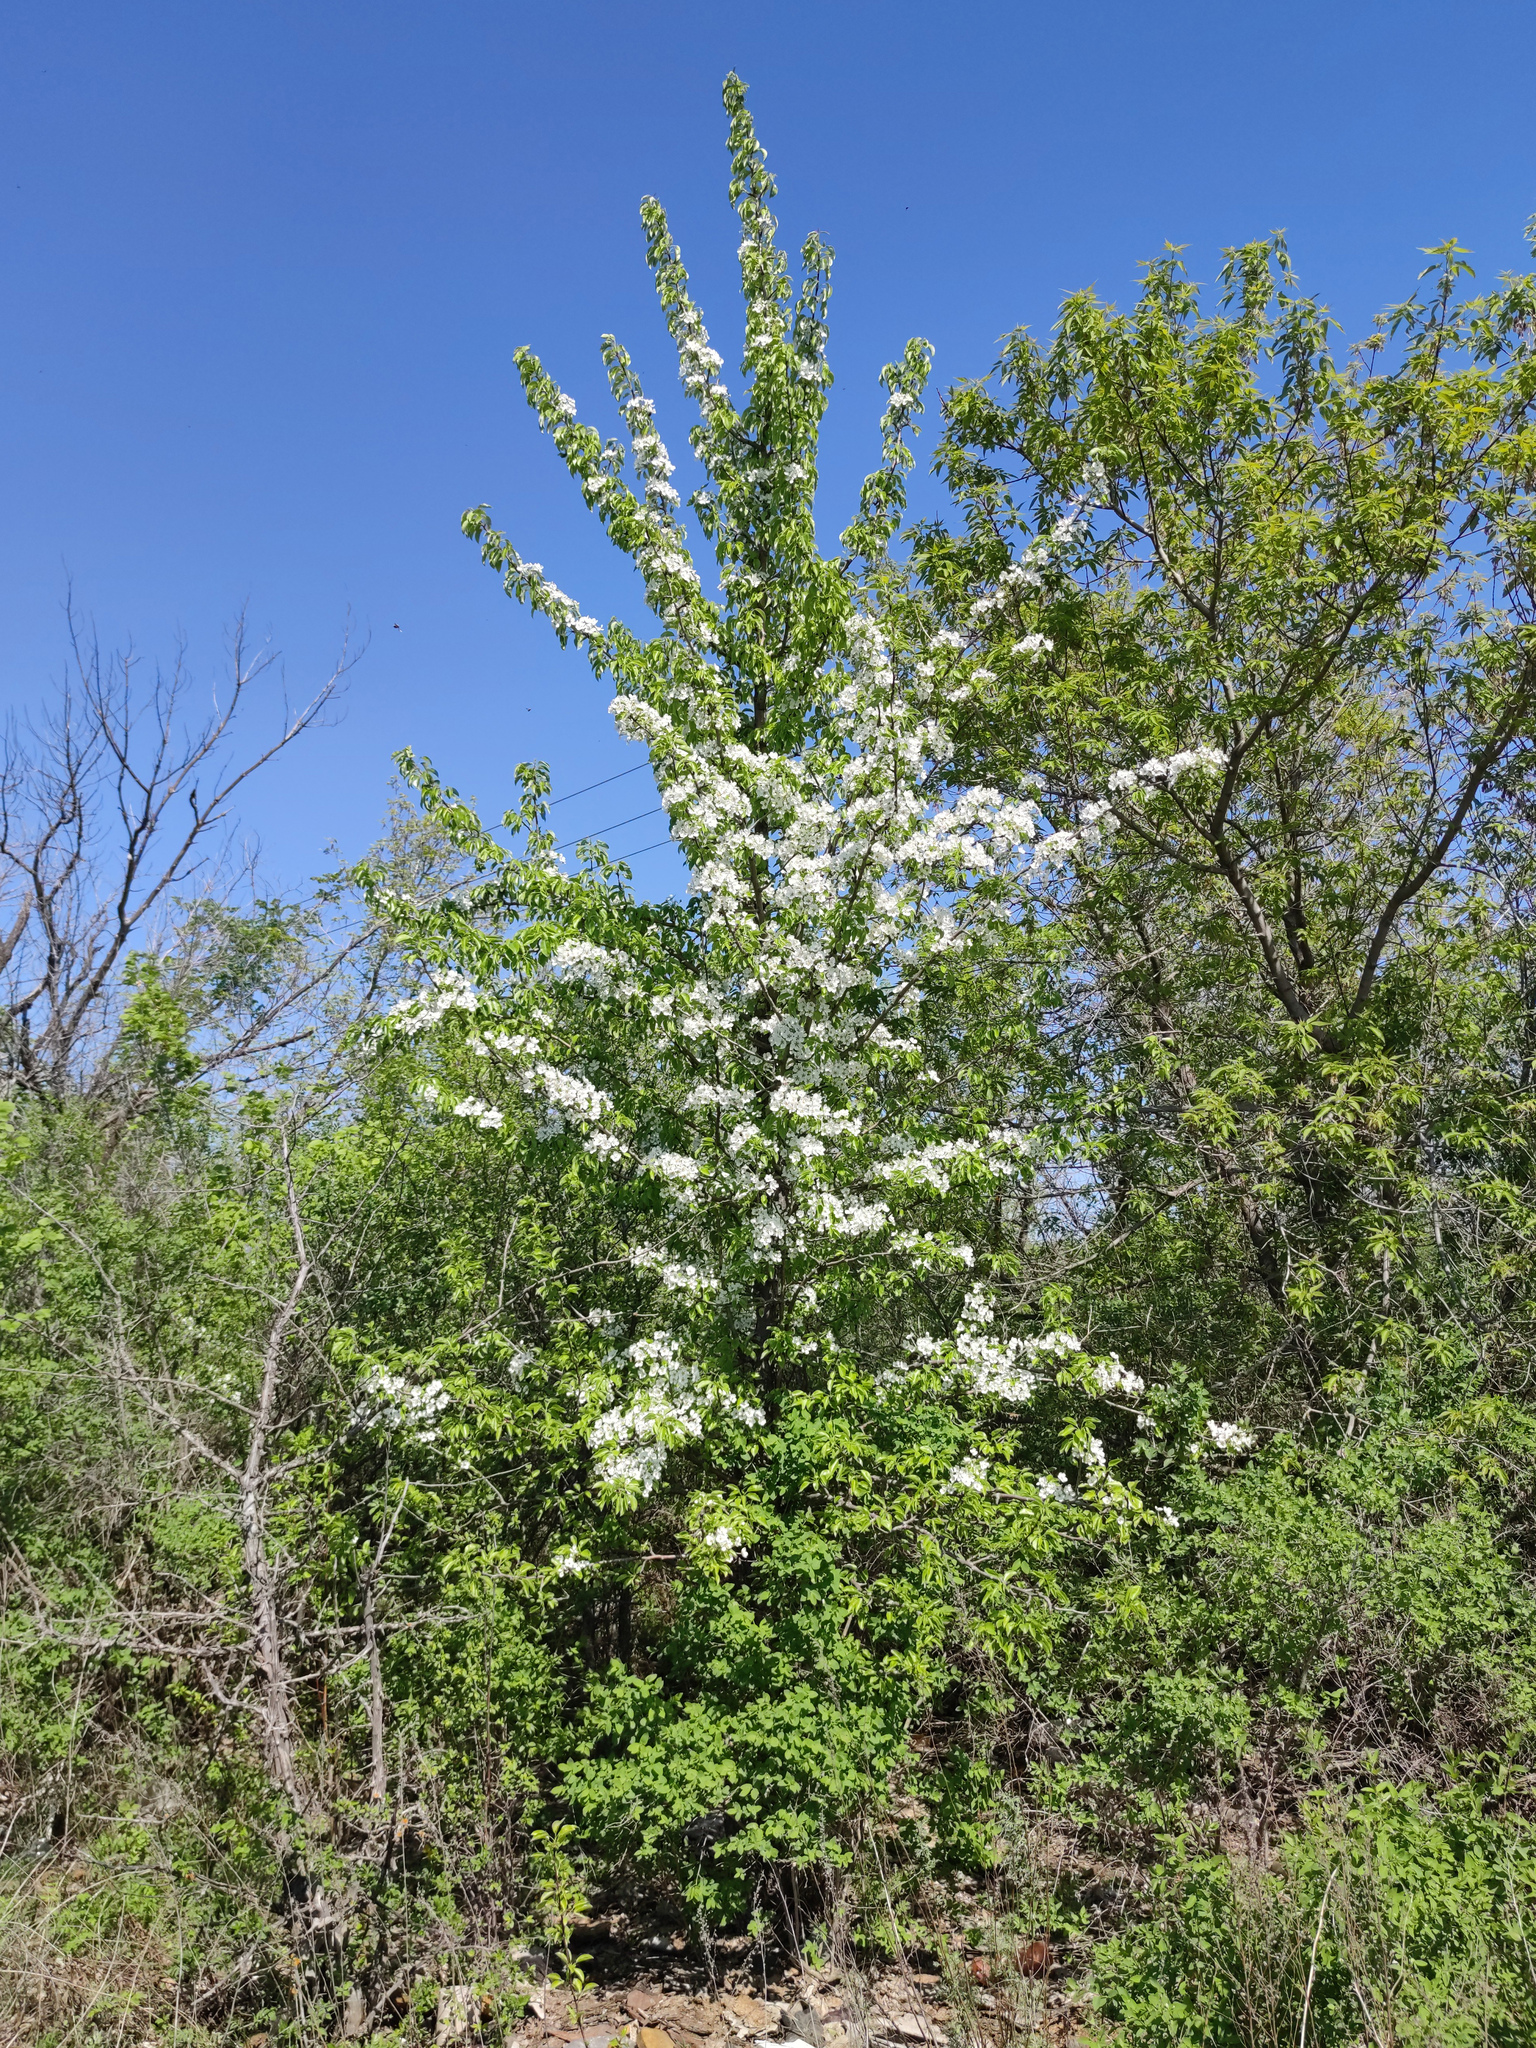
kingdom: Plantae
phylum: Tracheophyta
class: Magnoliopsida
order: Rosales
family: Rosaceae
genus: Pyrus
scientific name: Pyrus communis
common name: Pear
